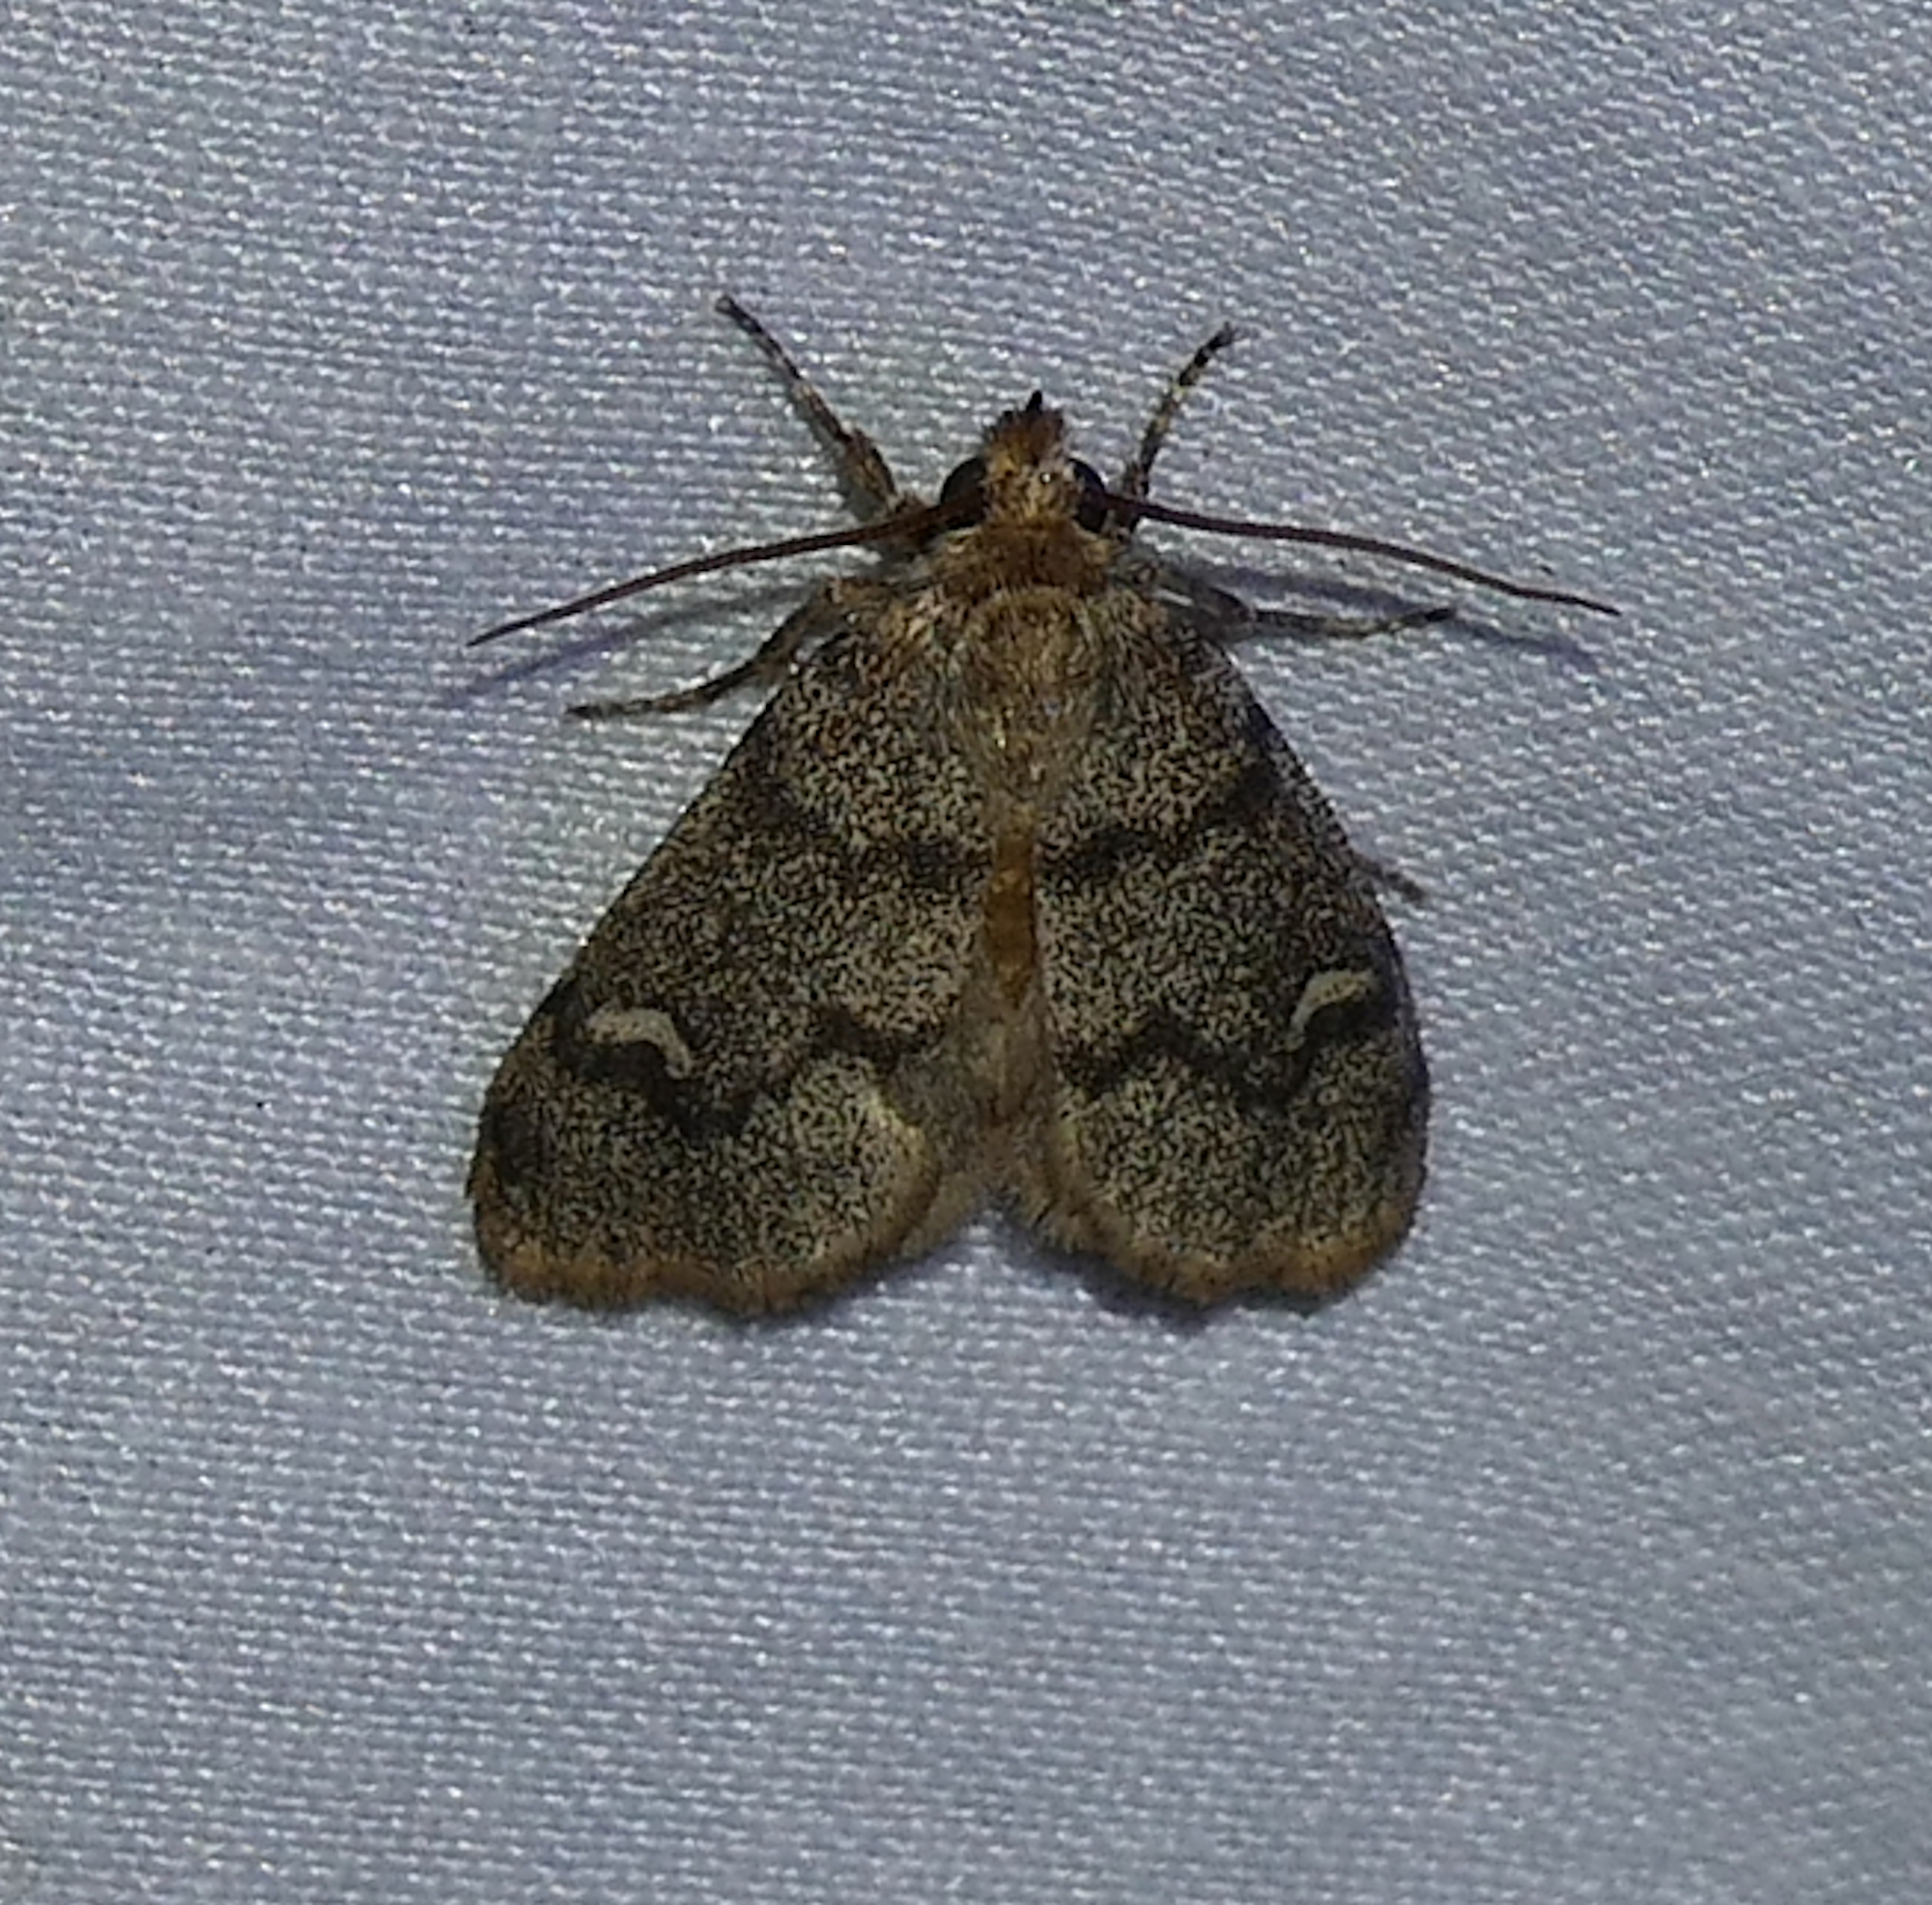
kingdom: Animalia
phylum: Arthropoda
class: Insecta
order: Lepidoptera
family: Noctuidae
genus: Narthecophora
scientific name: Narthecophora pulverea
